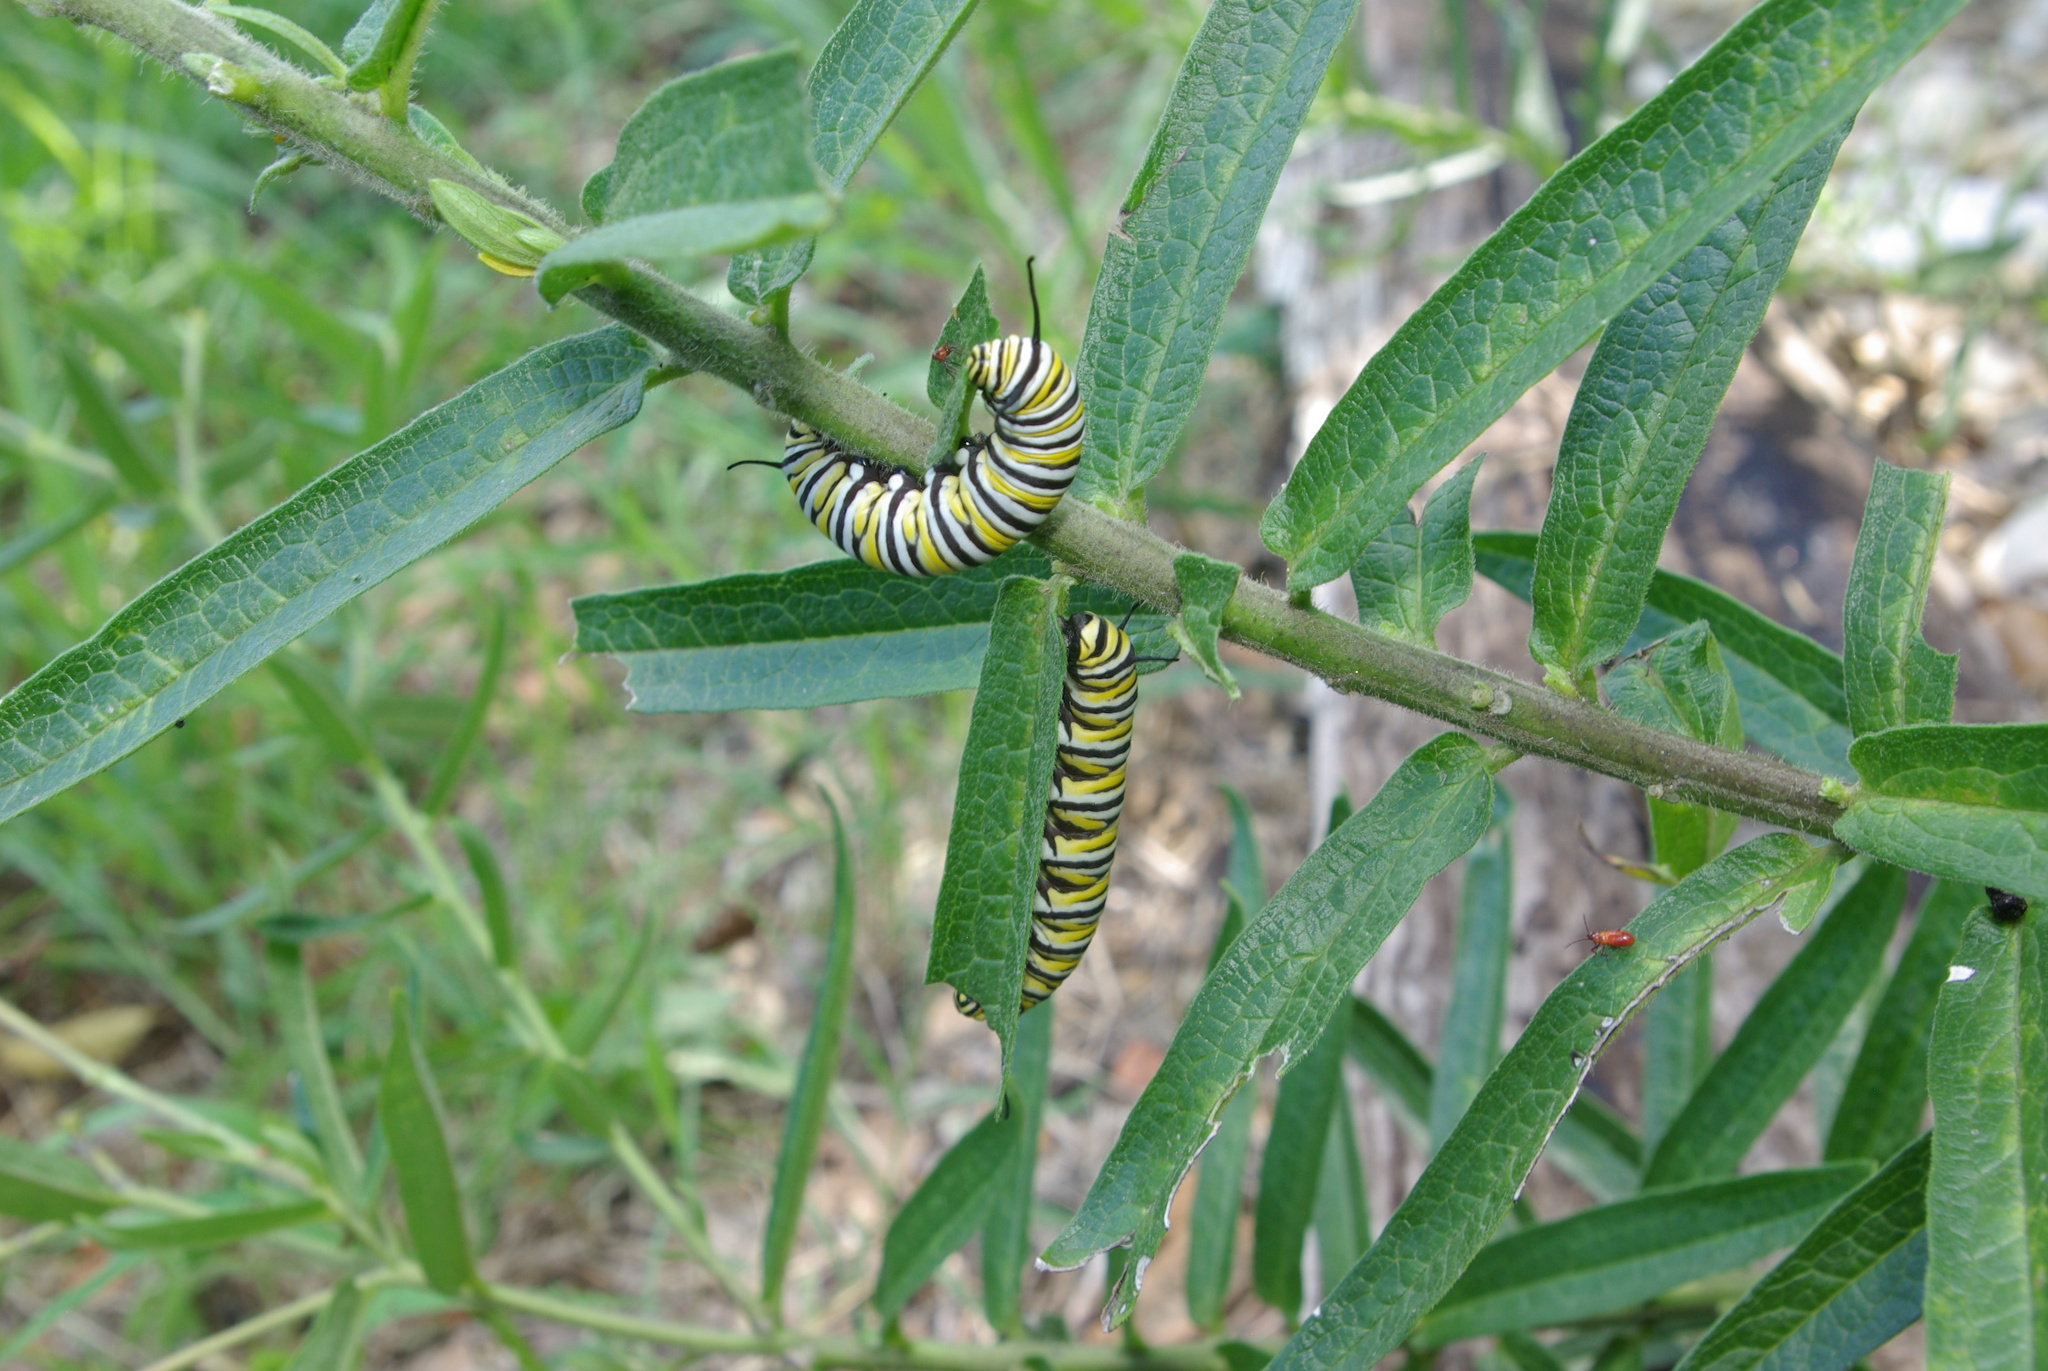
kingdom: Animalia
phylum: Arthropoda
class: Insecta
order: Lepidoptera
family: Nymphalidae
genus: Danaus
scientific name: Danaus plexippus
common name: Monarch
